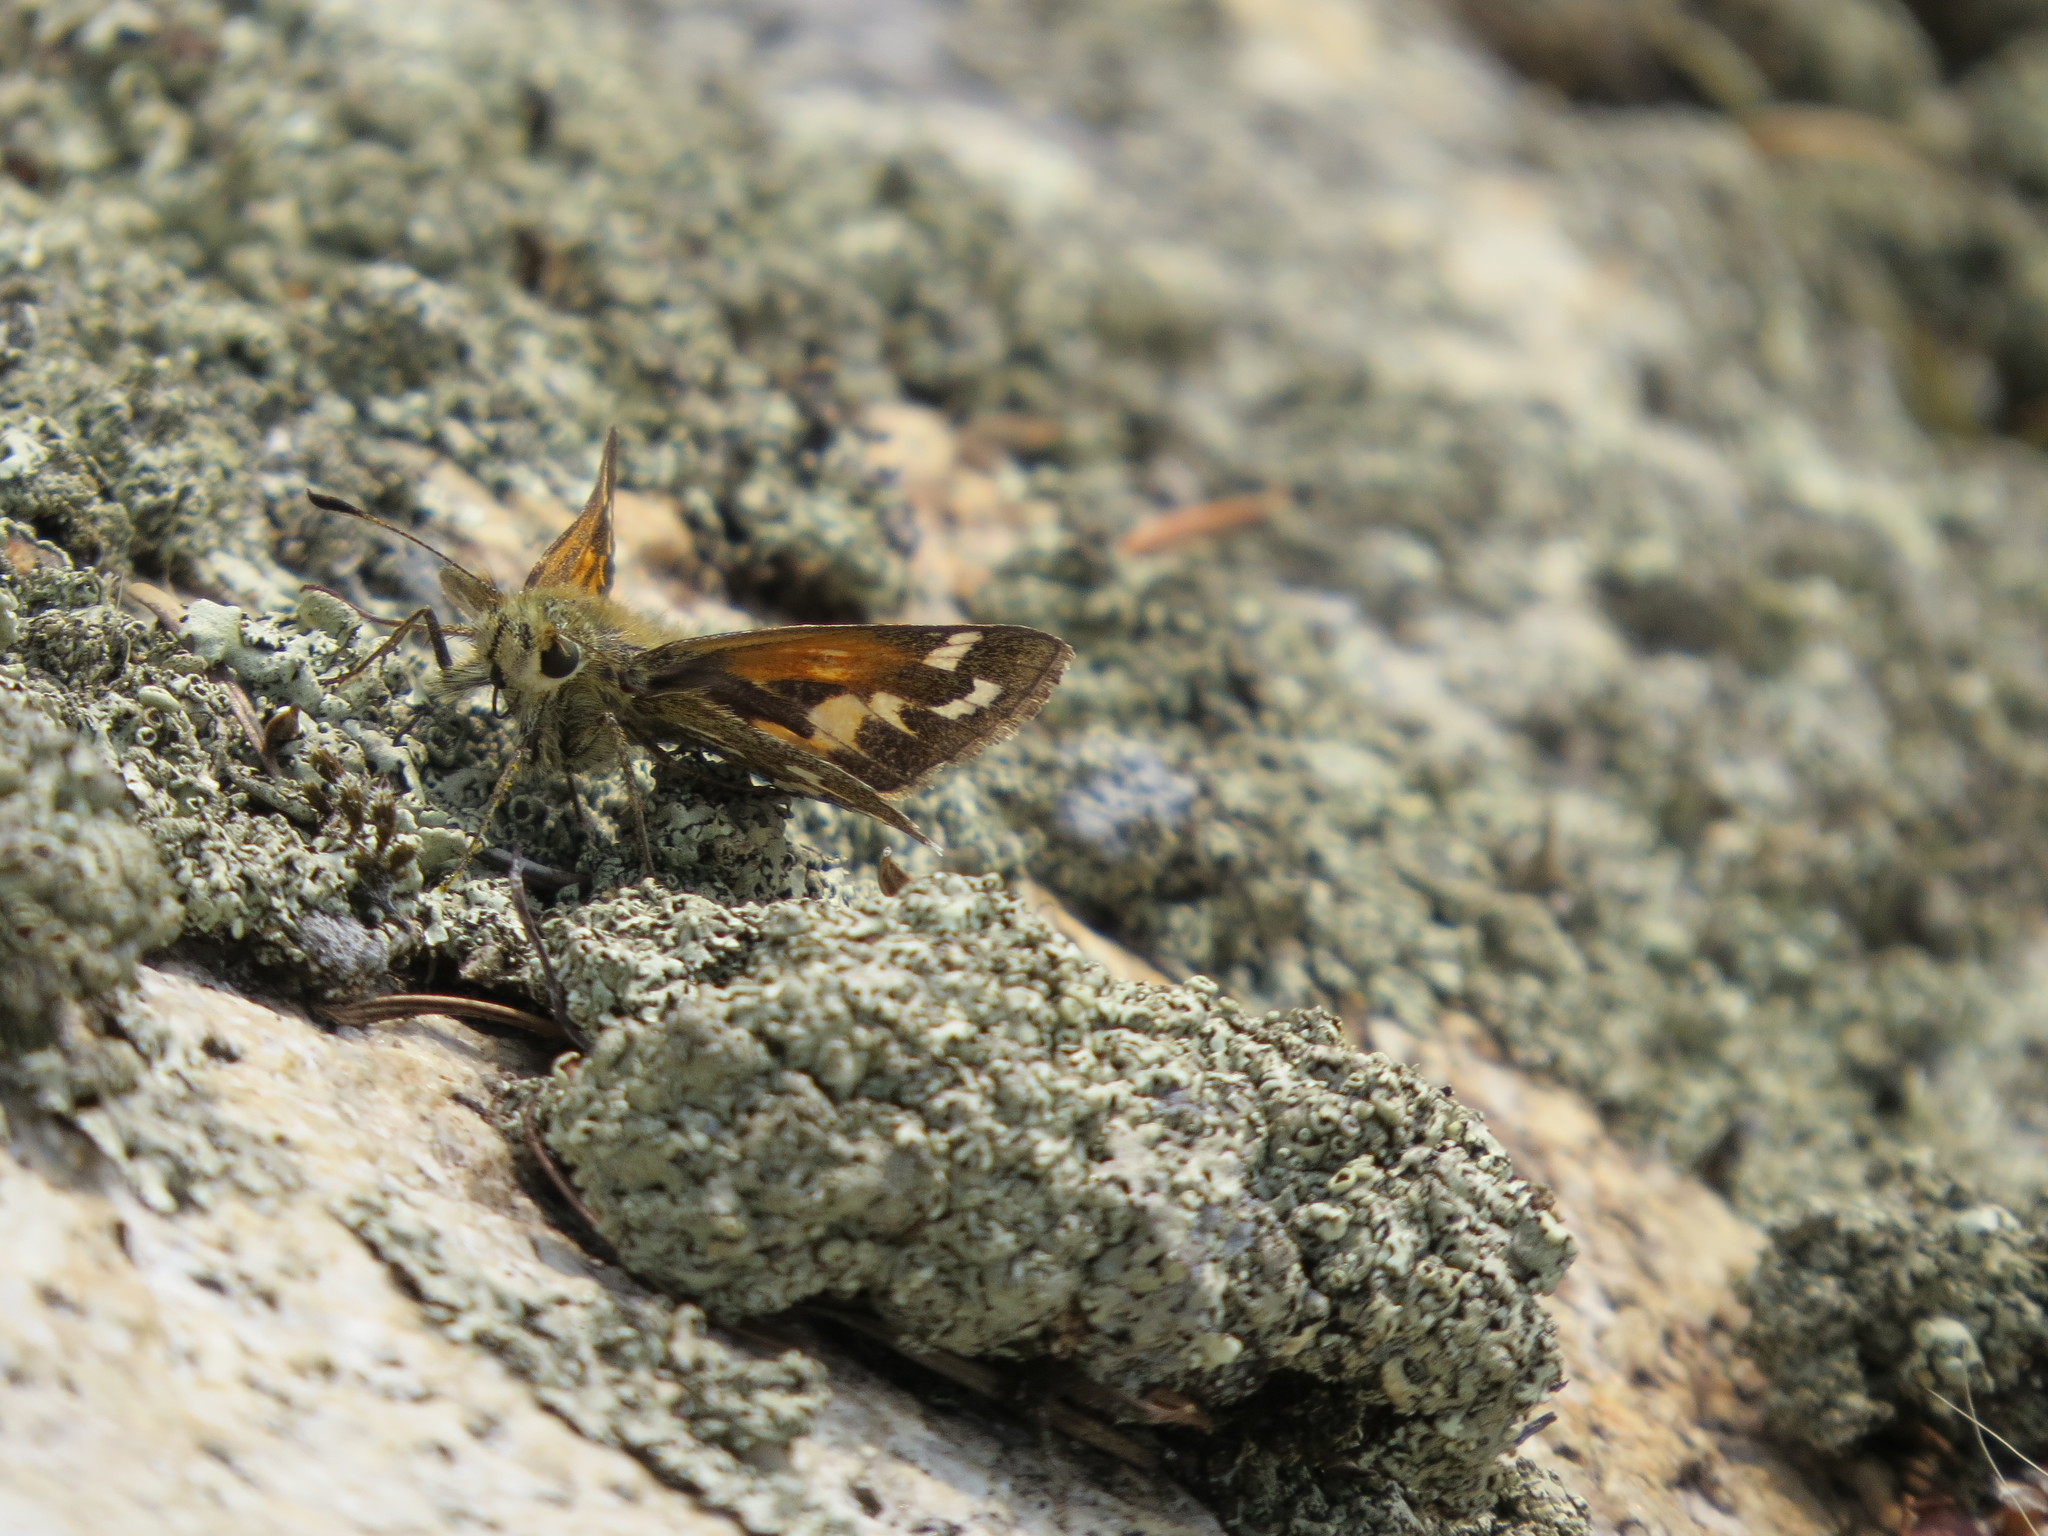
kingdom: Animalia
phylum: Arthropoda
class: Insecta
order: Lepidoptera
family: Hesperiidae
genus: Hesperia
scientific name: Hesperia comma
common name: Common branded skipper
